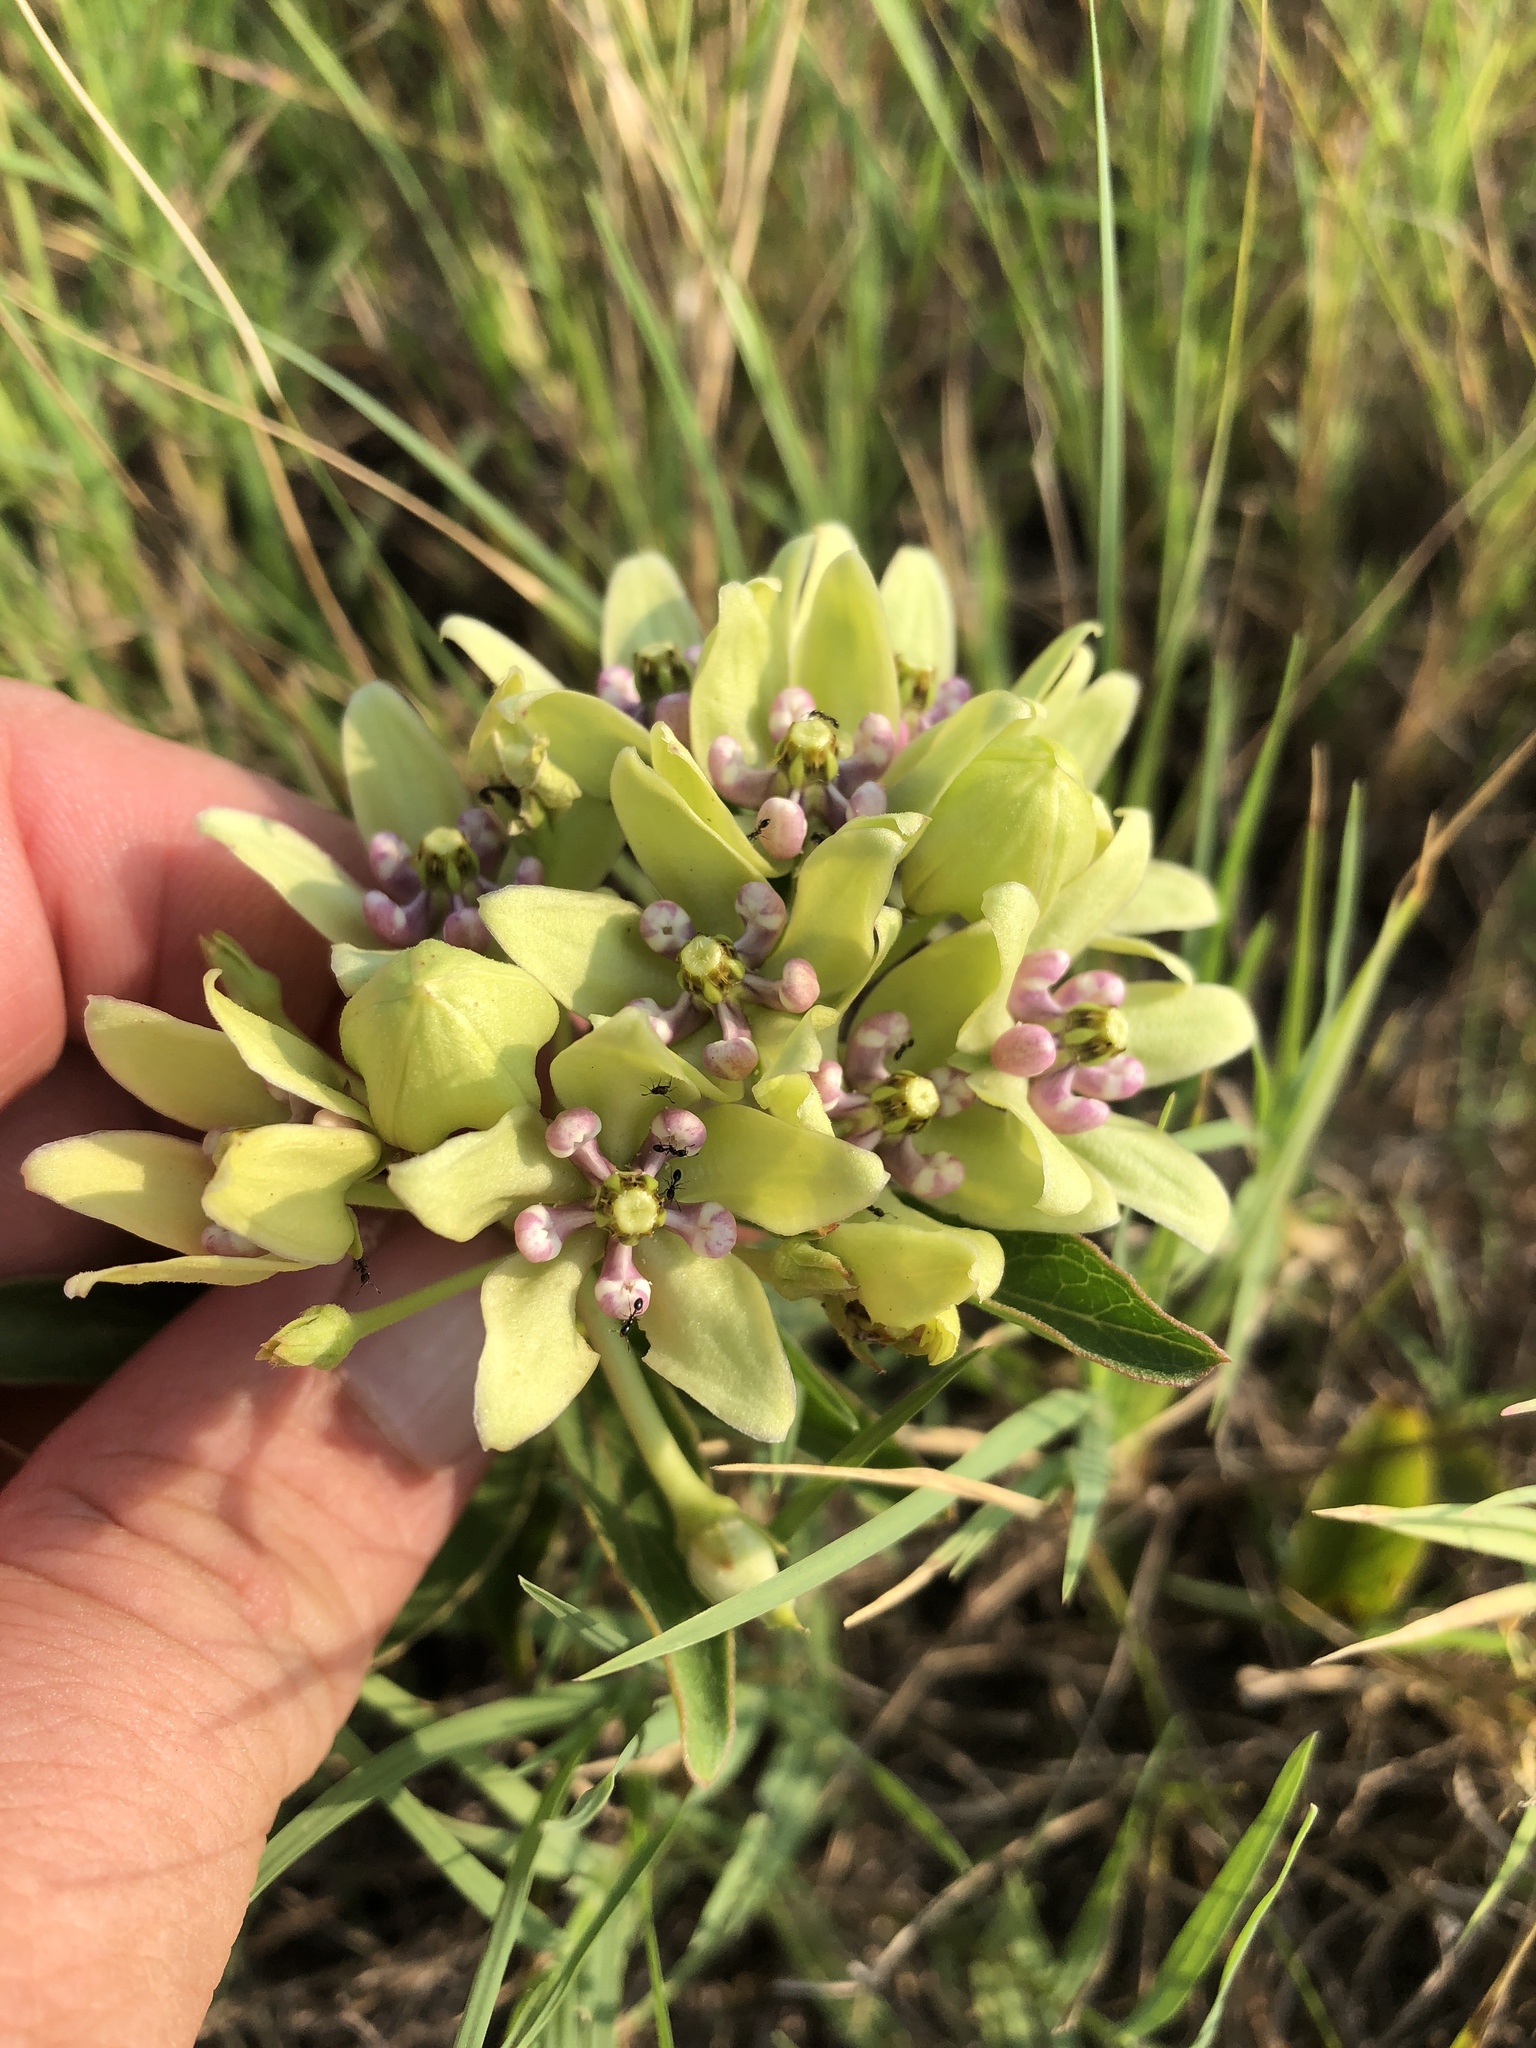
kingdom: Plantae
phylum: Tracheophyta
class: Magnoliopsida
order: Gentianales
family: Apocynaceae
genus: Asclepias
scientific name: Asclepias viridis
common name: Antelope-horns
